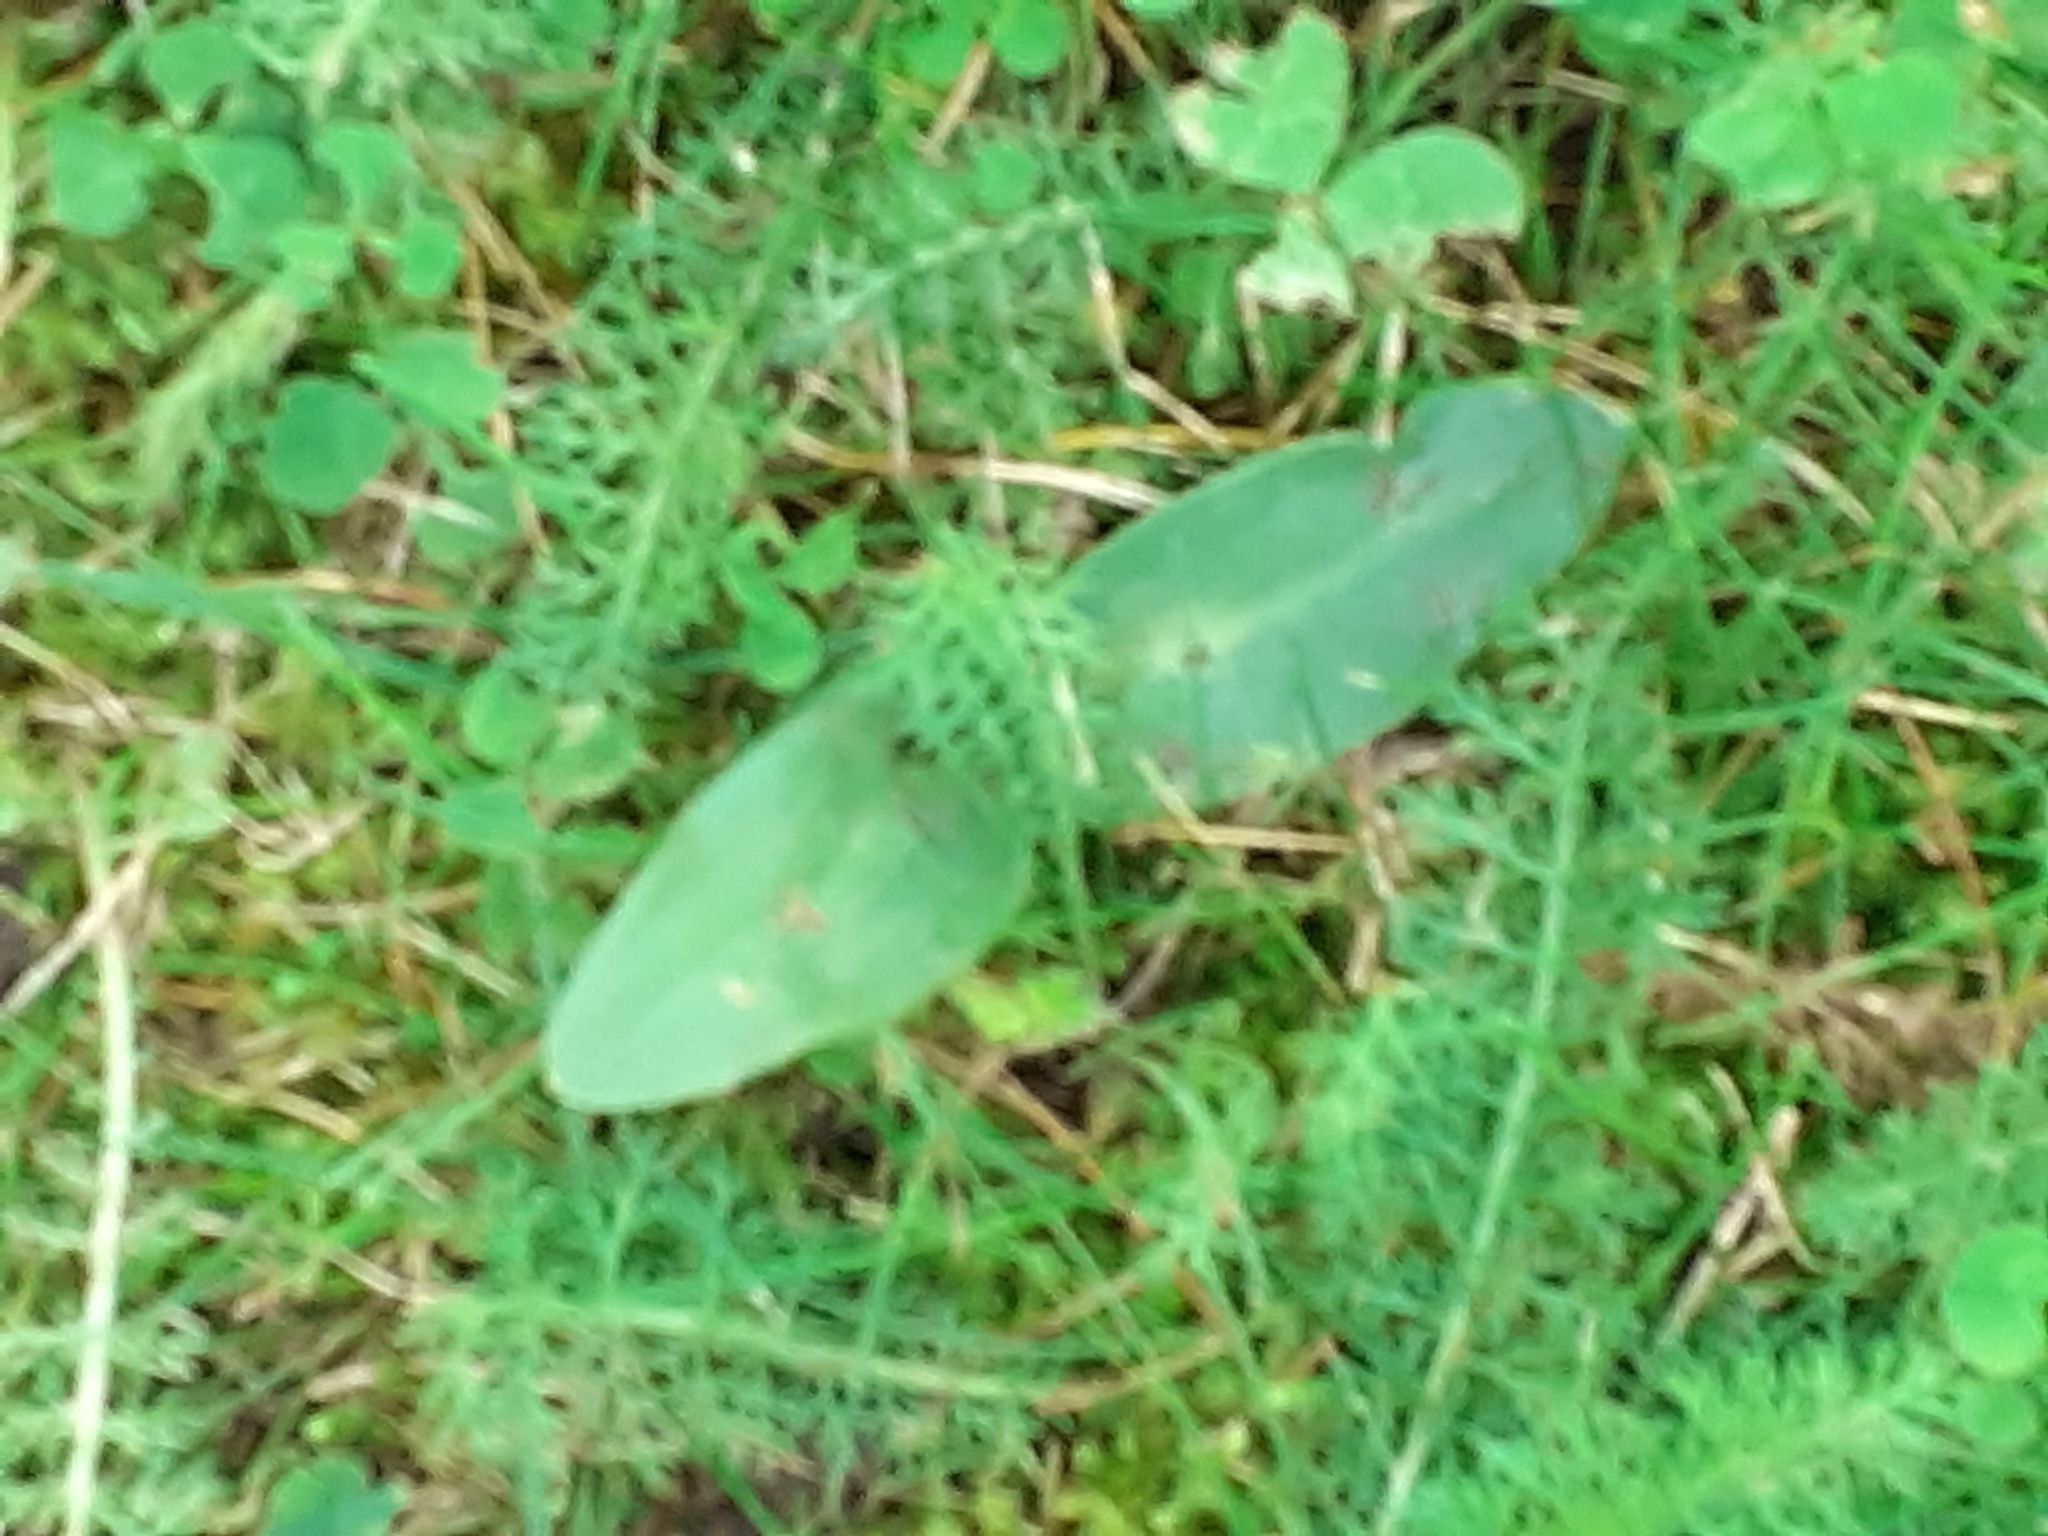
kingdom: Plantae
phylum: Tracheophyta
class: Liliopsida
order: Asparagales
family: Orchidaceae
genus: Ophrys
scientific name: Ophrys apifera
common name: Bee orchid
